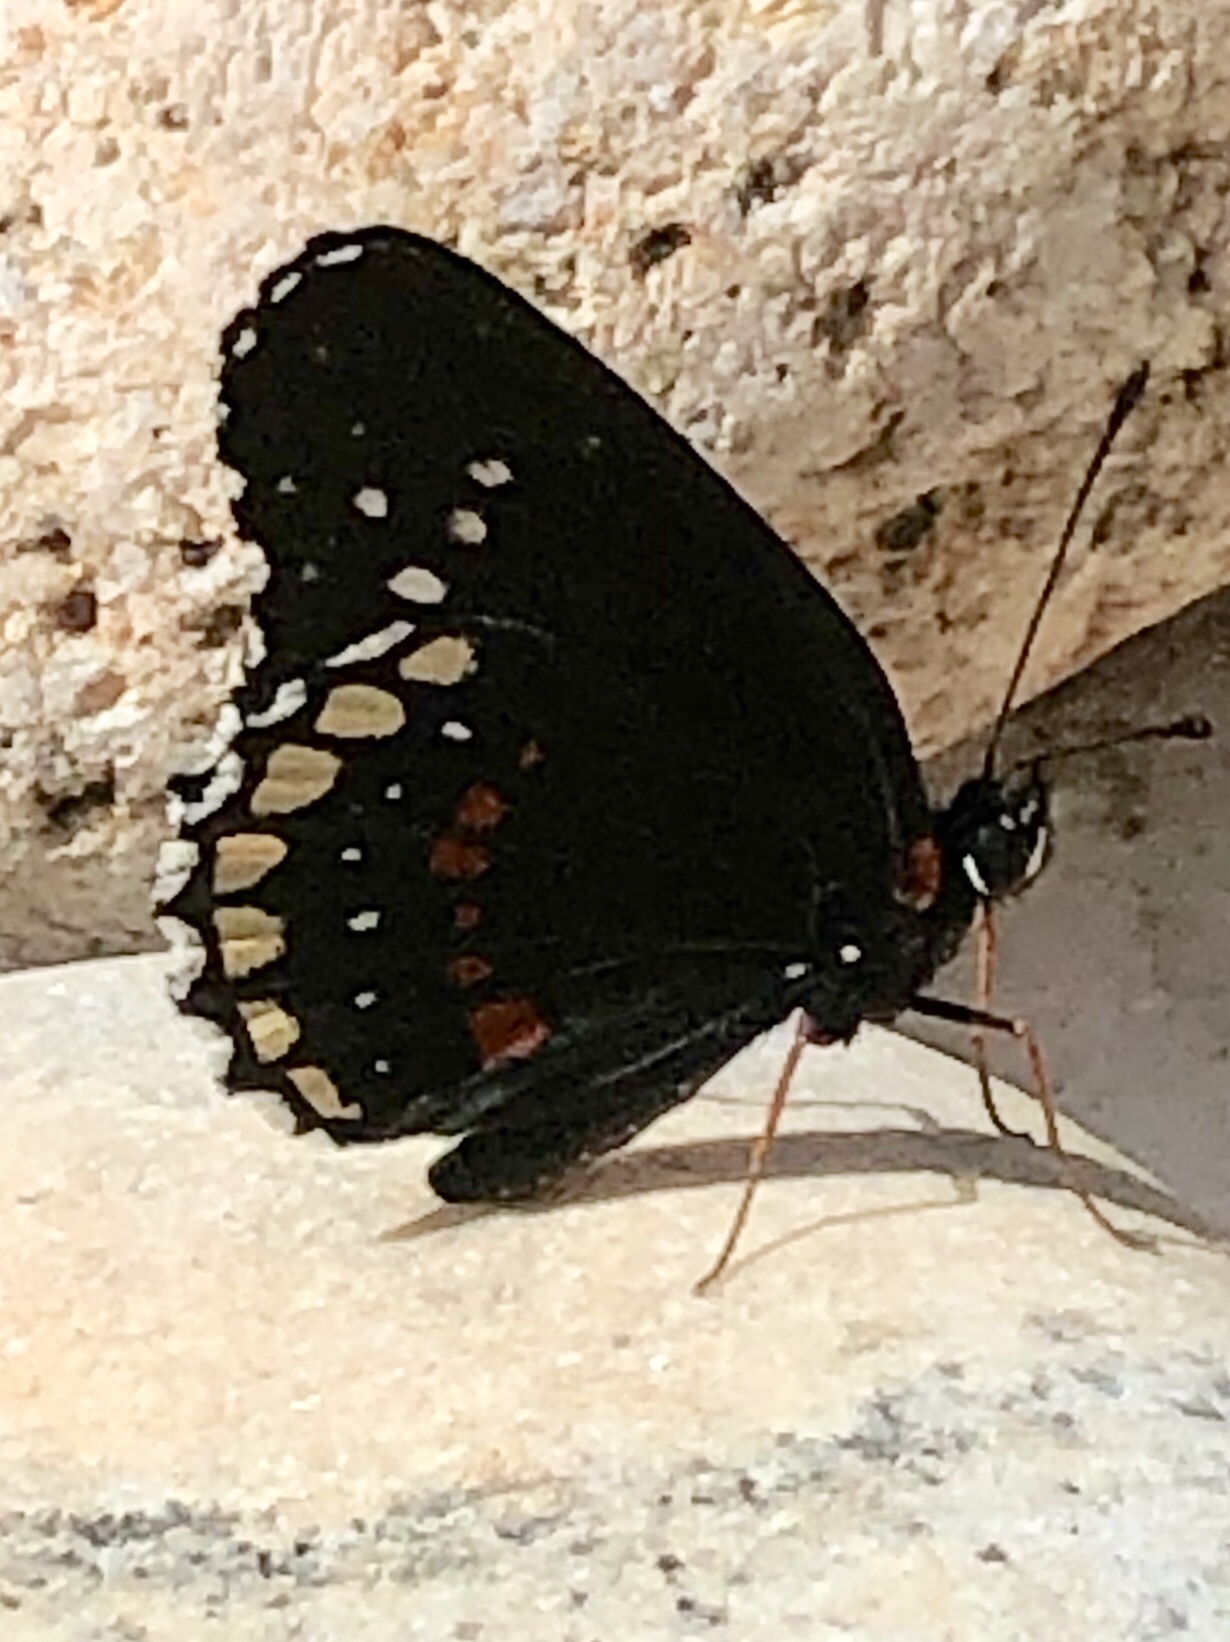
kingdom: Animalia
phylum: Arthropoda
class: Insecta
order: Lepidoptera
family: Nymphalidae
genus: Chlosyne
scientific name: Chlosyne hippodrome
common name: Simple patch
